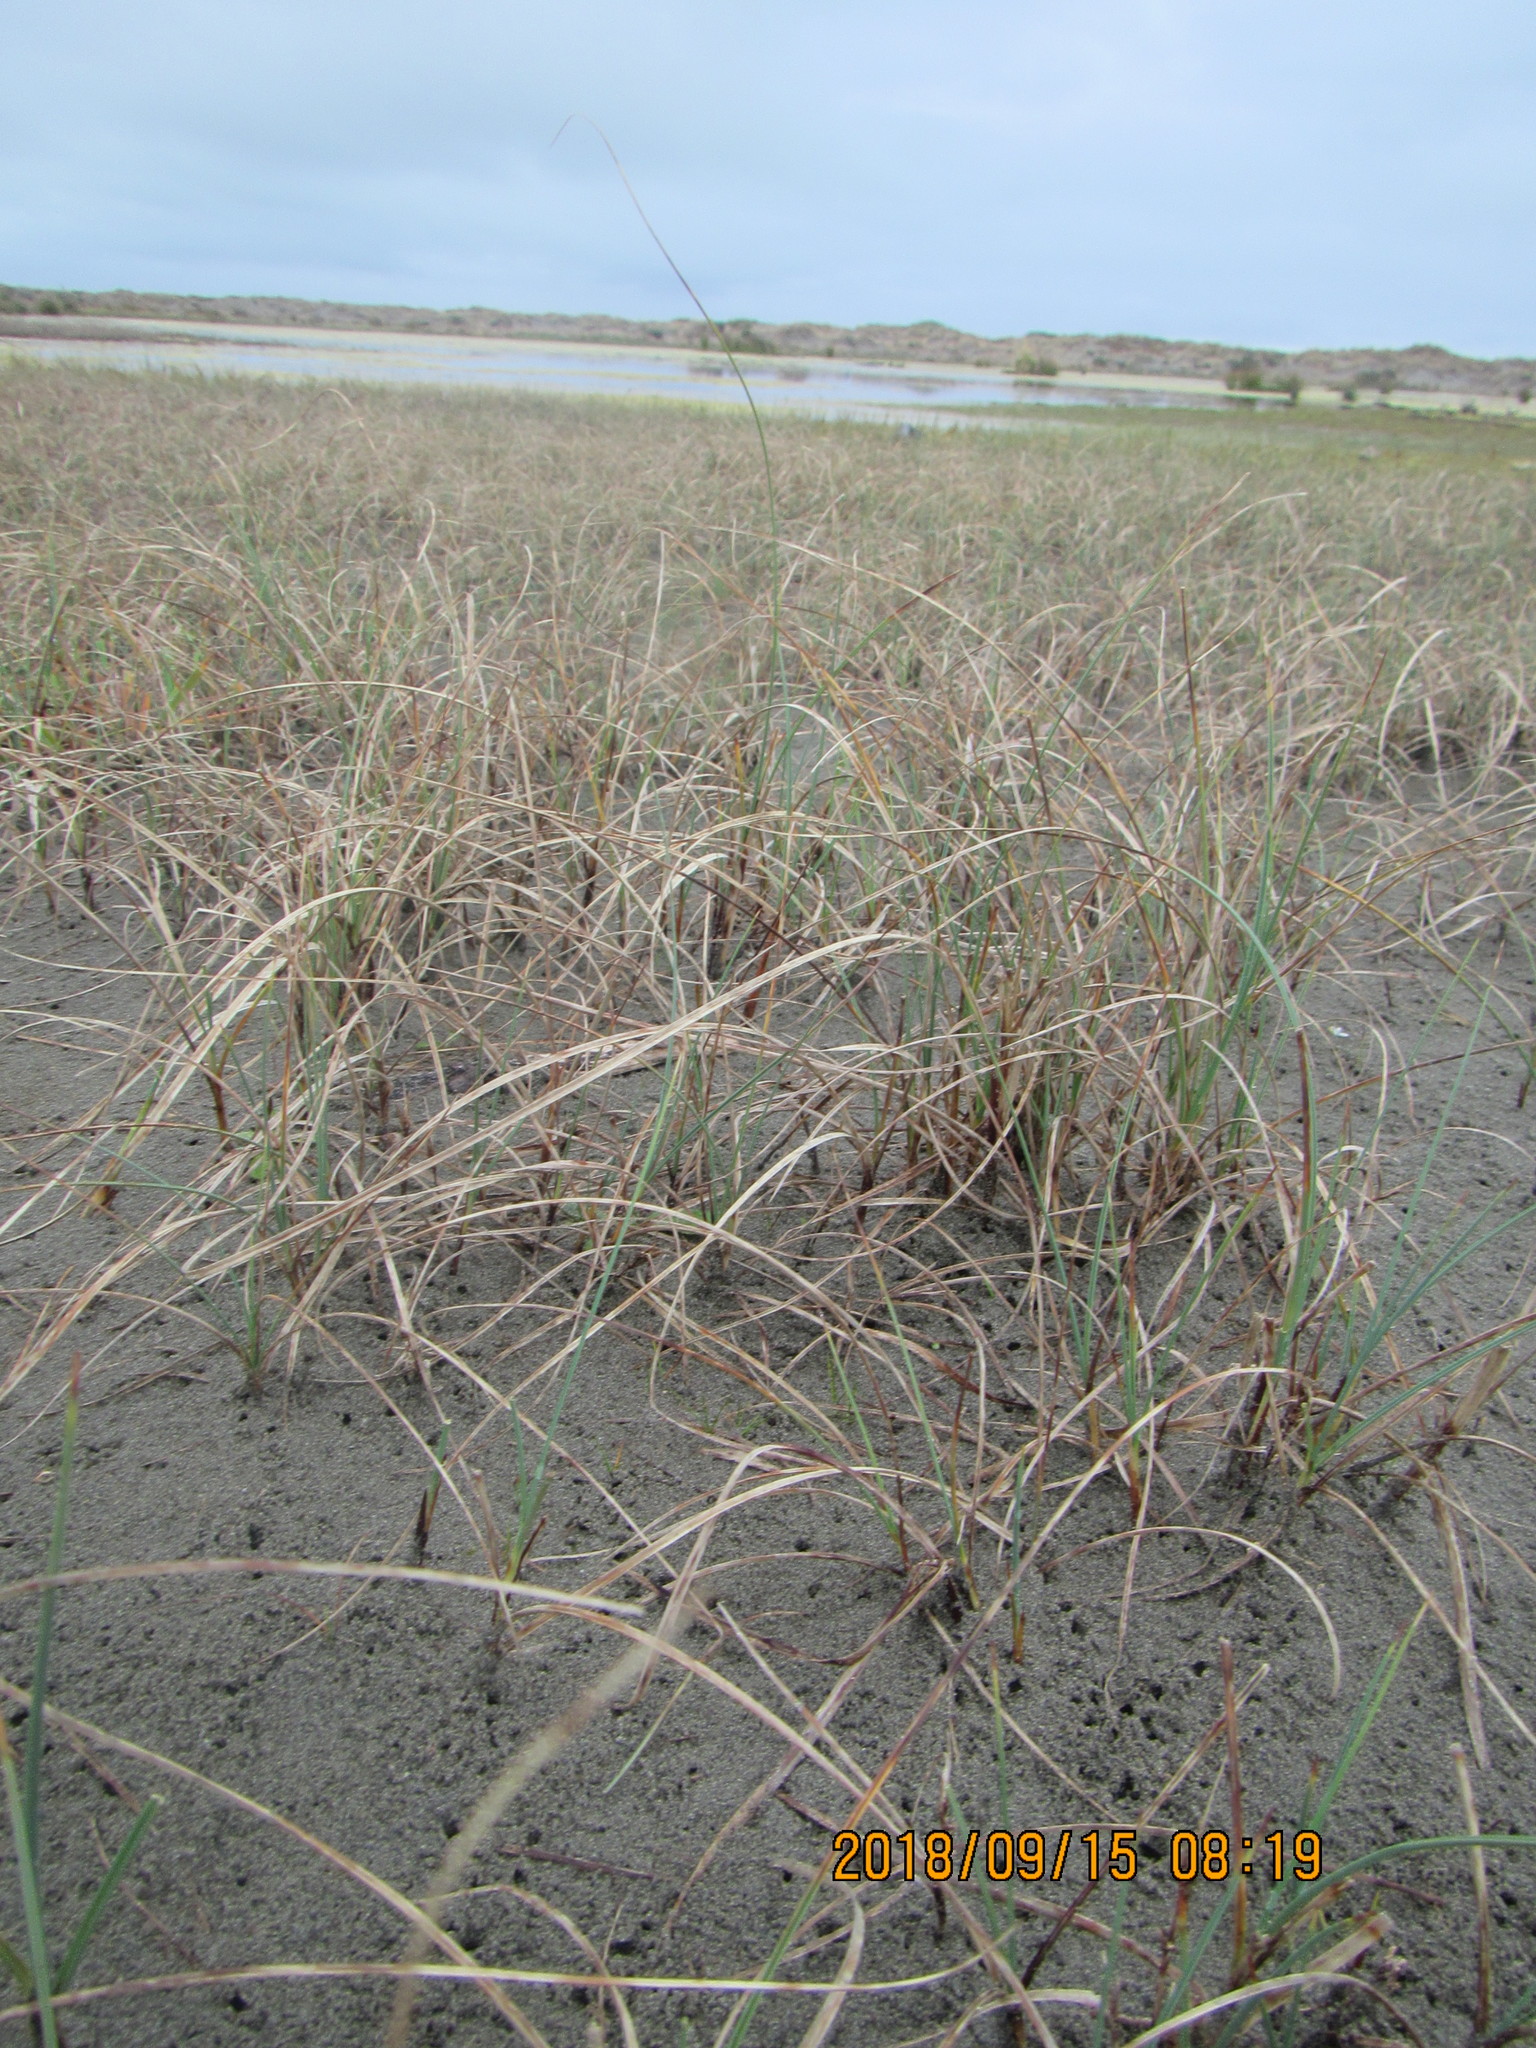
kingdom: Plantae
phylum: Tracheophyta
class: Liliopsida
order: Poales
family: Cyperaceae
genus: Carex
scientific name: Carex pumila
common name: Dwarf sedge
